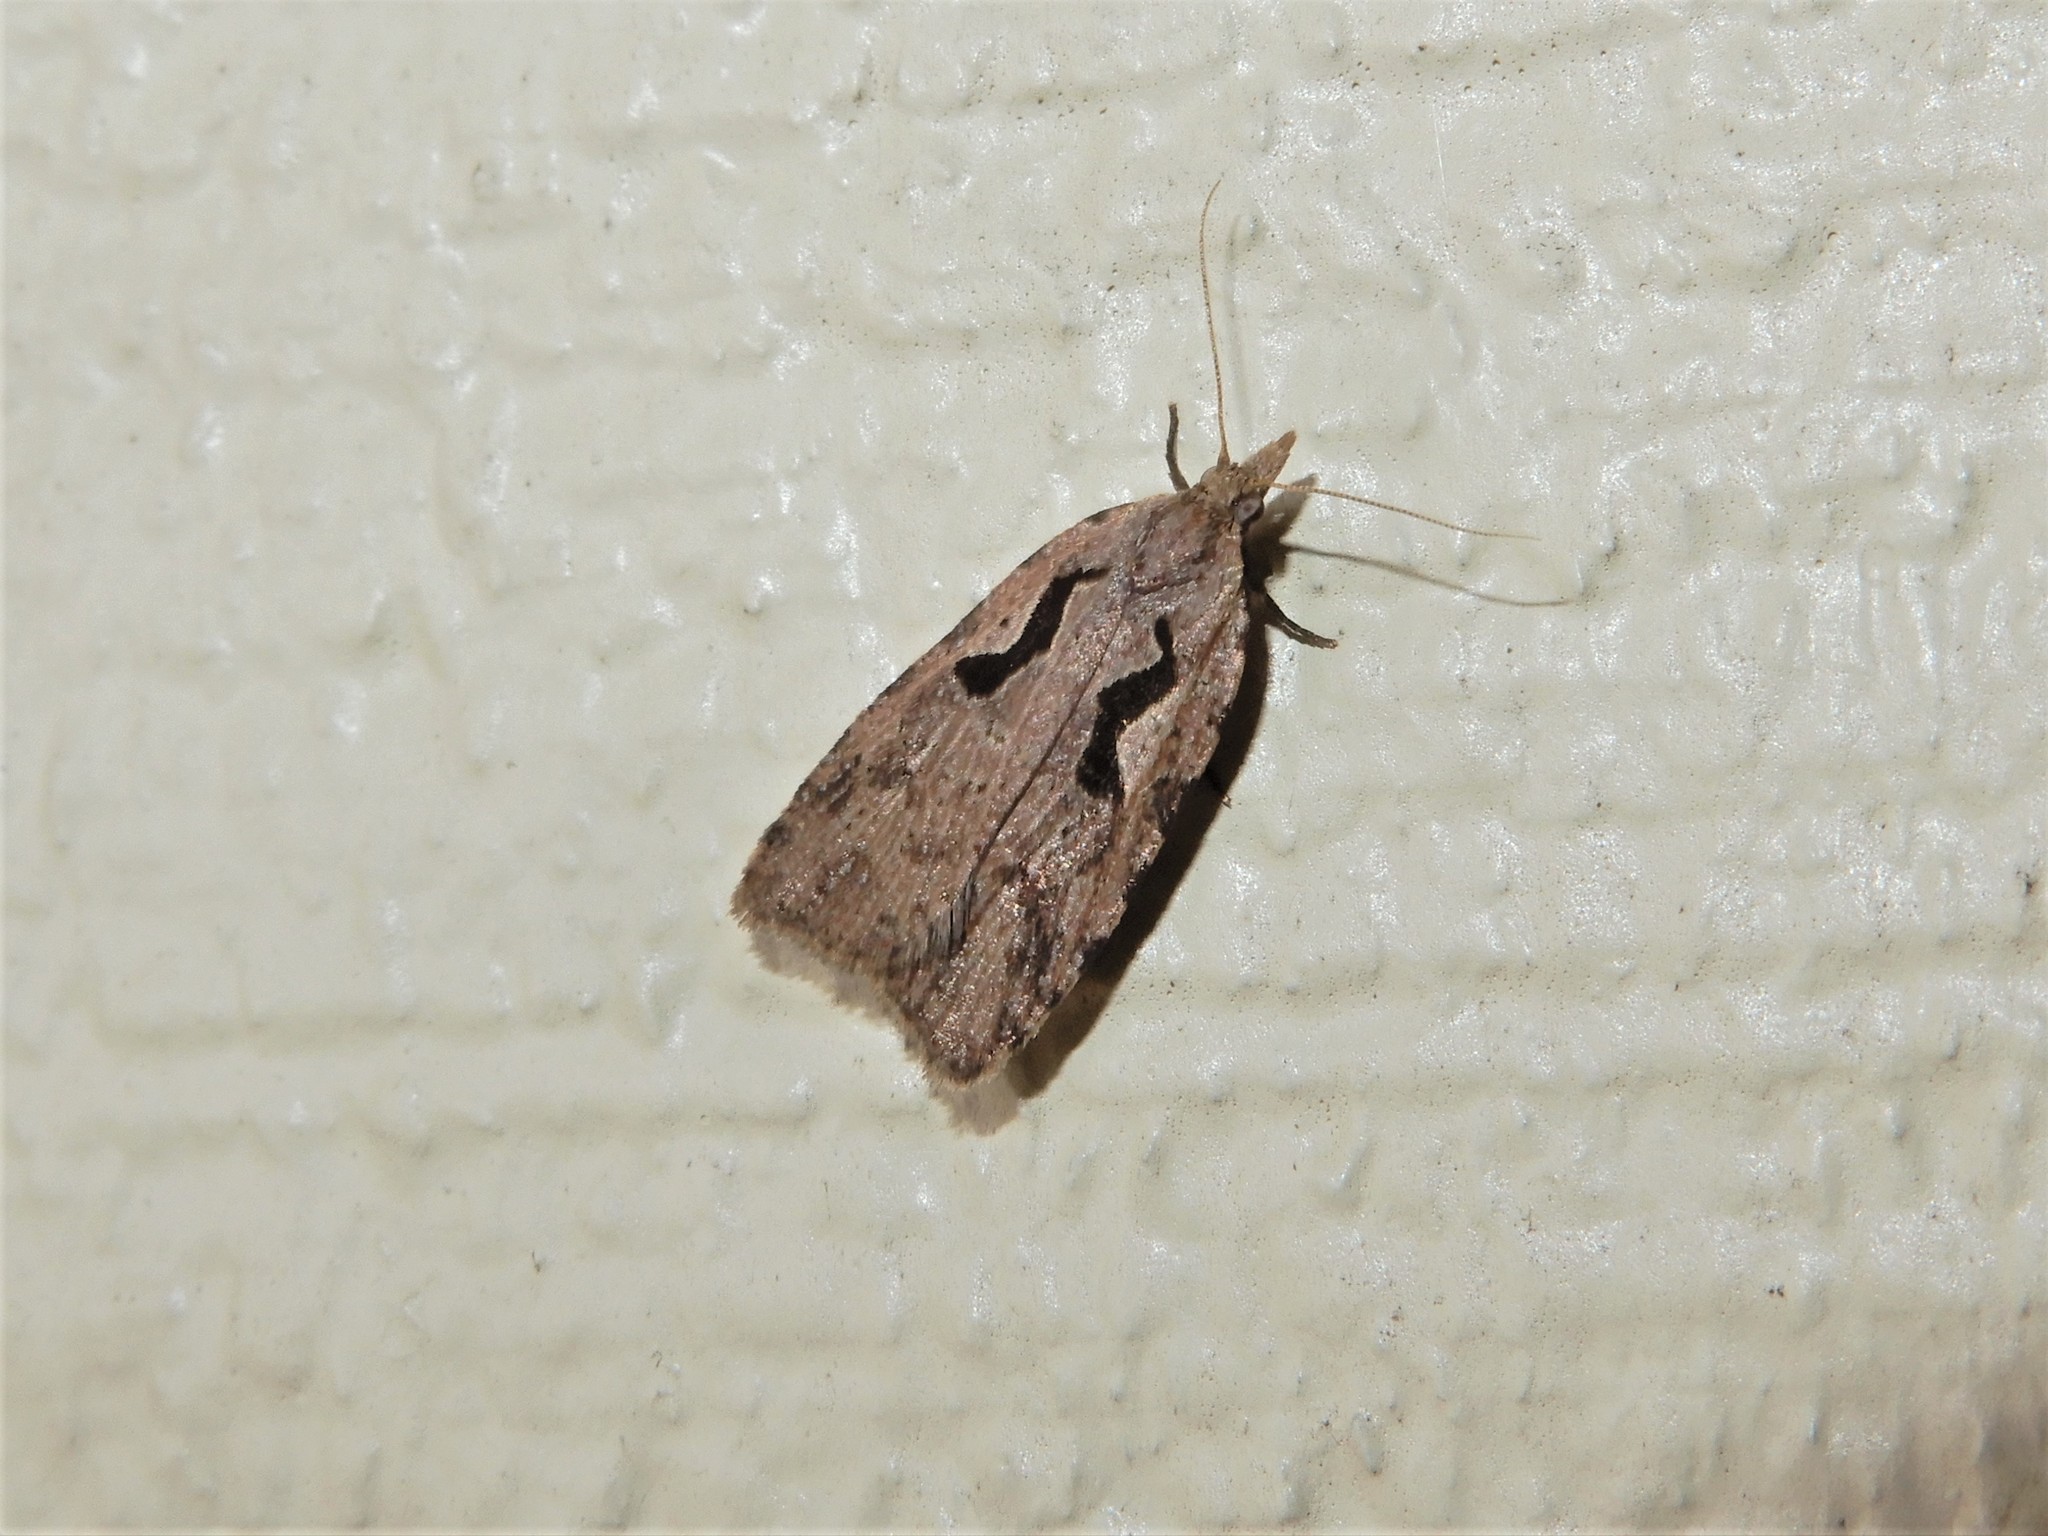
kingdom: Animalia
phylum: Arthropoda
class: Insecta
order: Lepidoptera
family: Tortricidae
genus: Cnephasia
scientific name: Cnephasia jactatana
